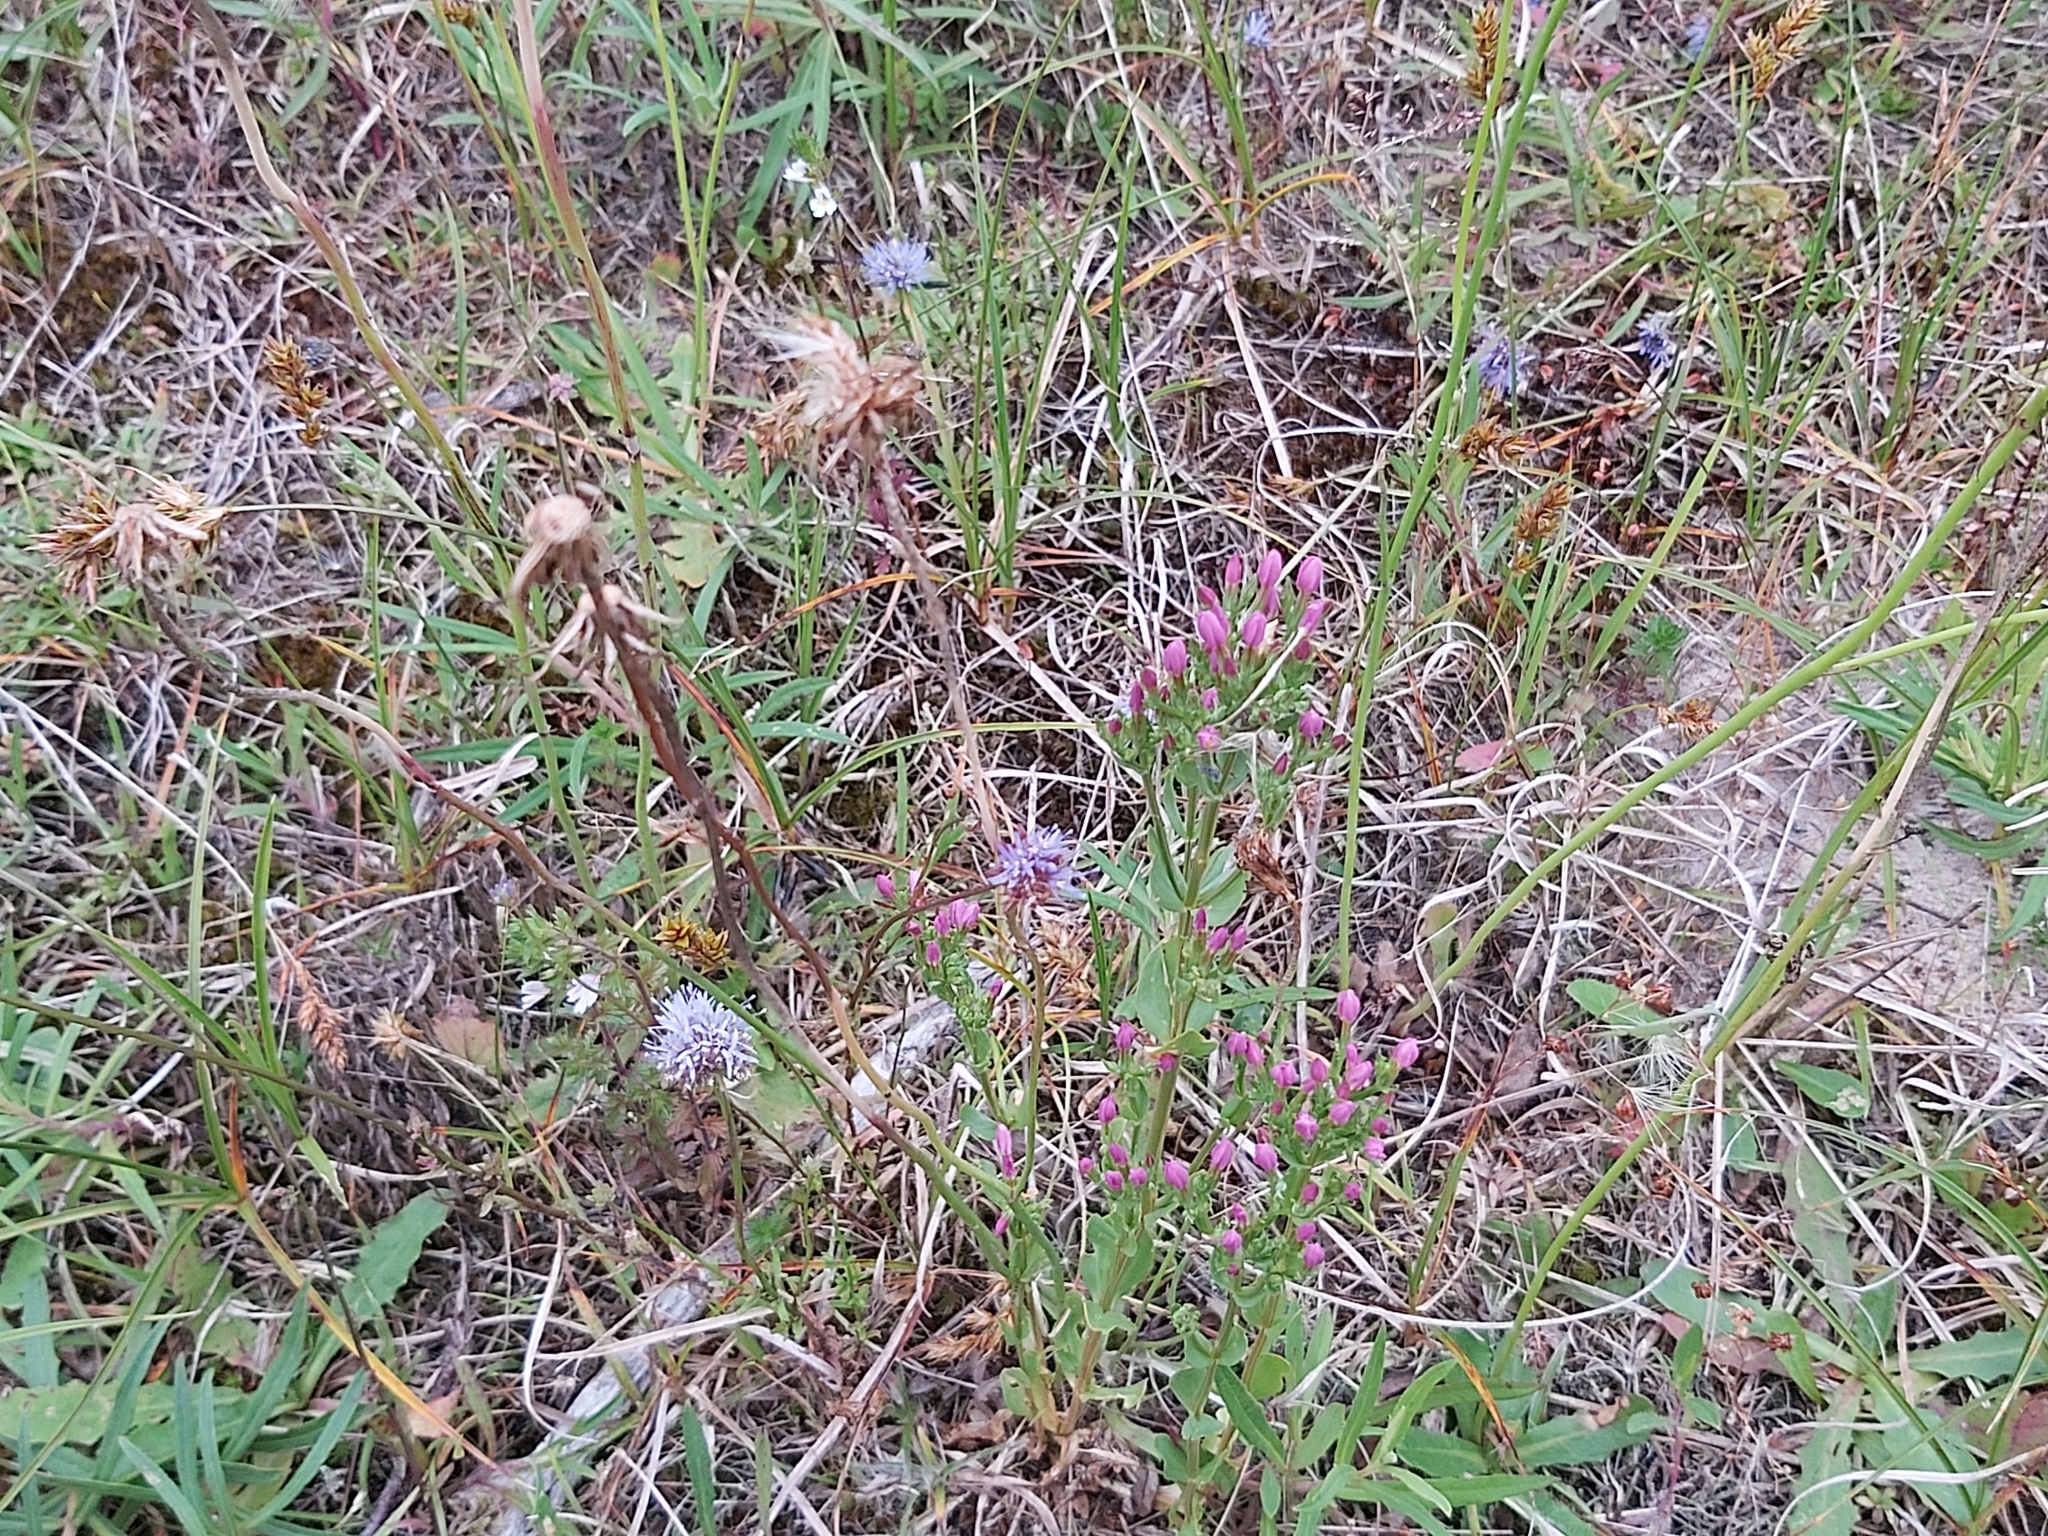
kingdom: Plantae
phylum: Tracheophyta
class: Magnoliopsida
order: Gentianales
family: Gentianaceae
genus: Centaurium
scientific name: Centaurium erythraea
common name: Common centaury
